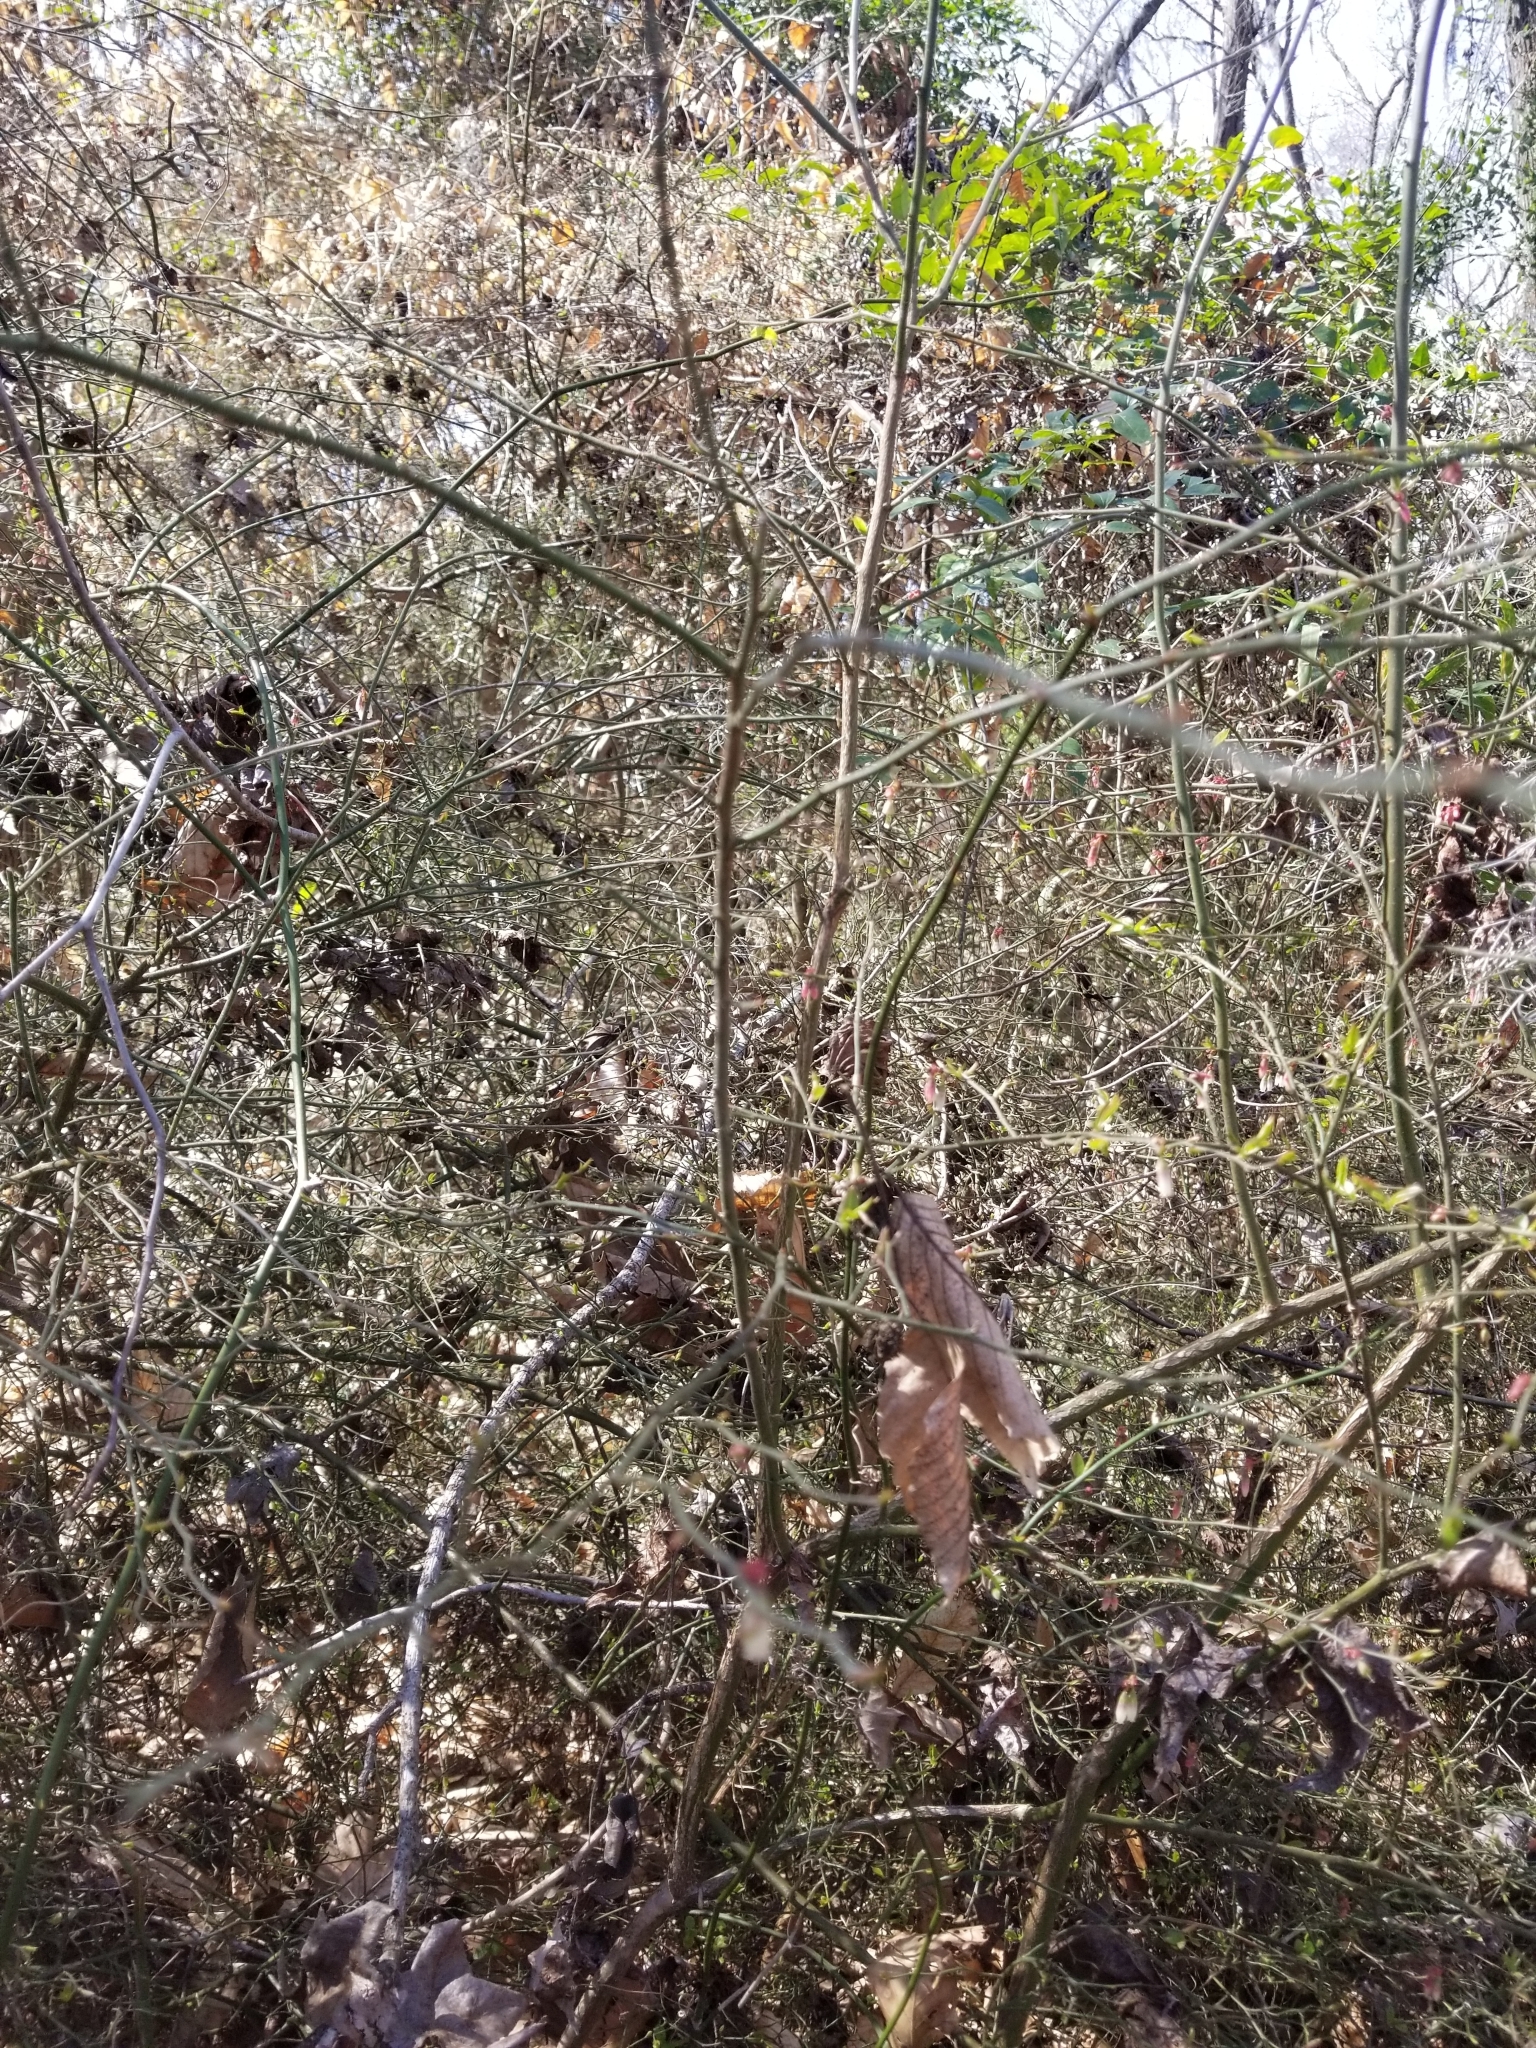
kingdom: Plantae
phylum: Tracheophyta
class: Magnoliopsida
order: Ericales
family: Ericaceae
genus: Vaccinium
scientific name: Vaccinium corymbosum
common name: Blueberry
